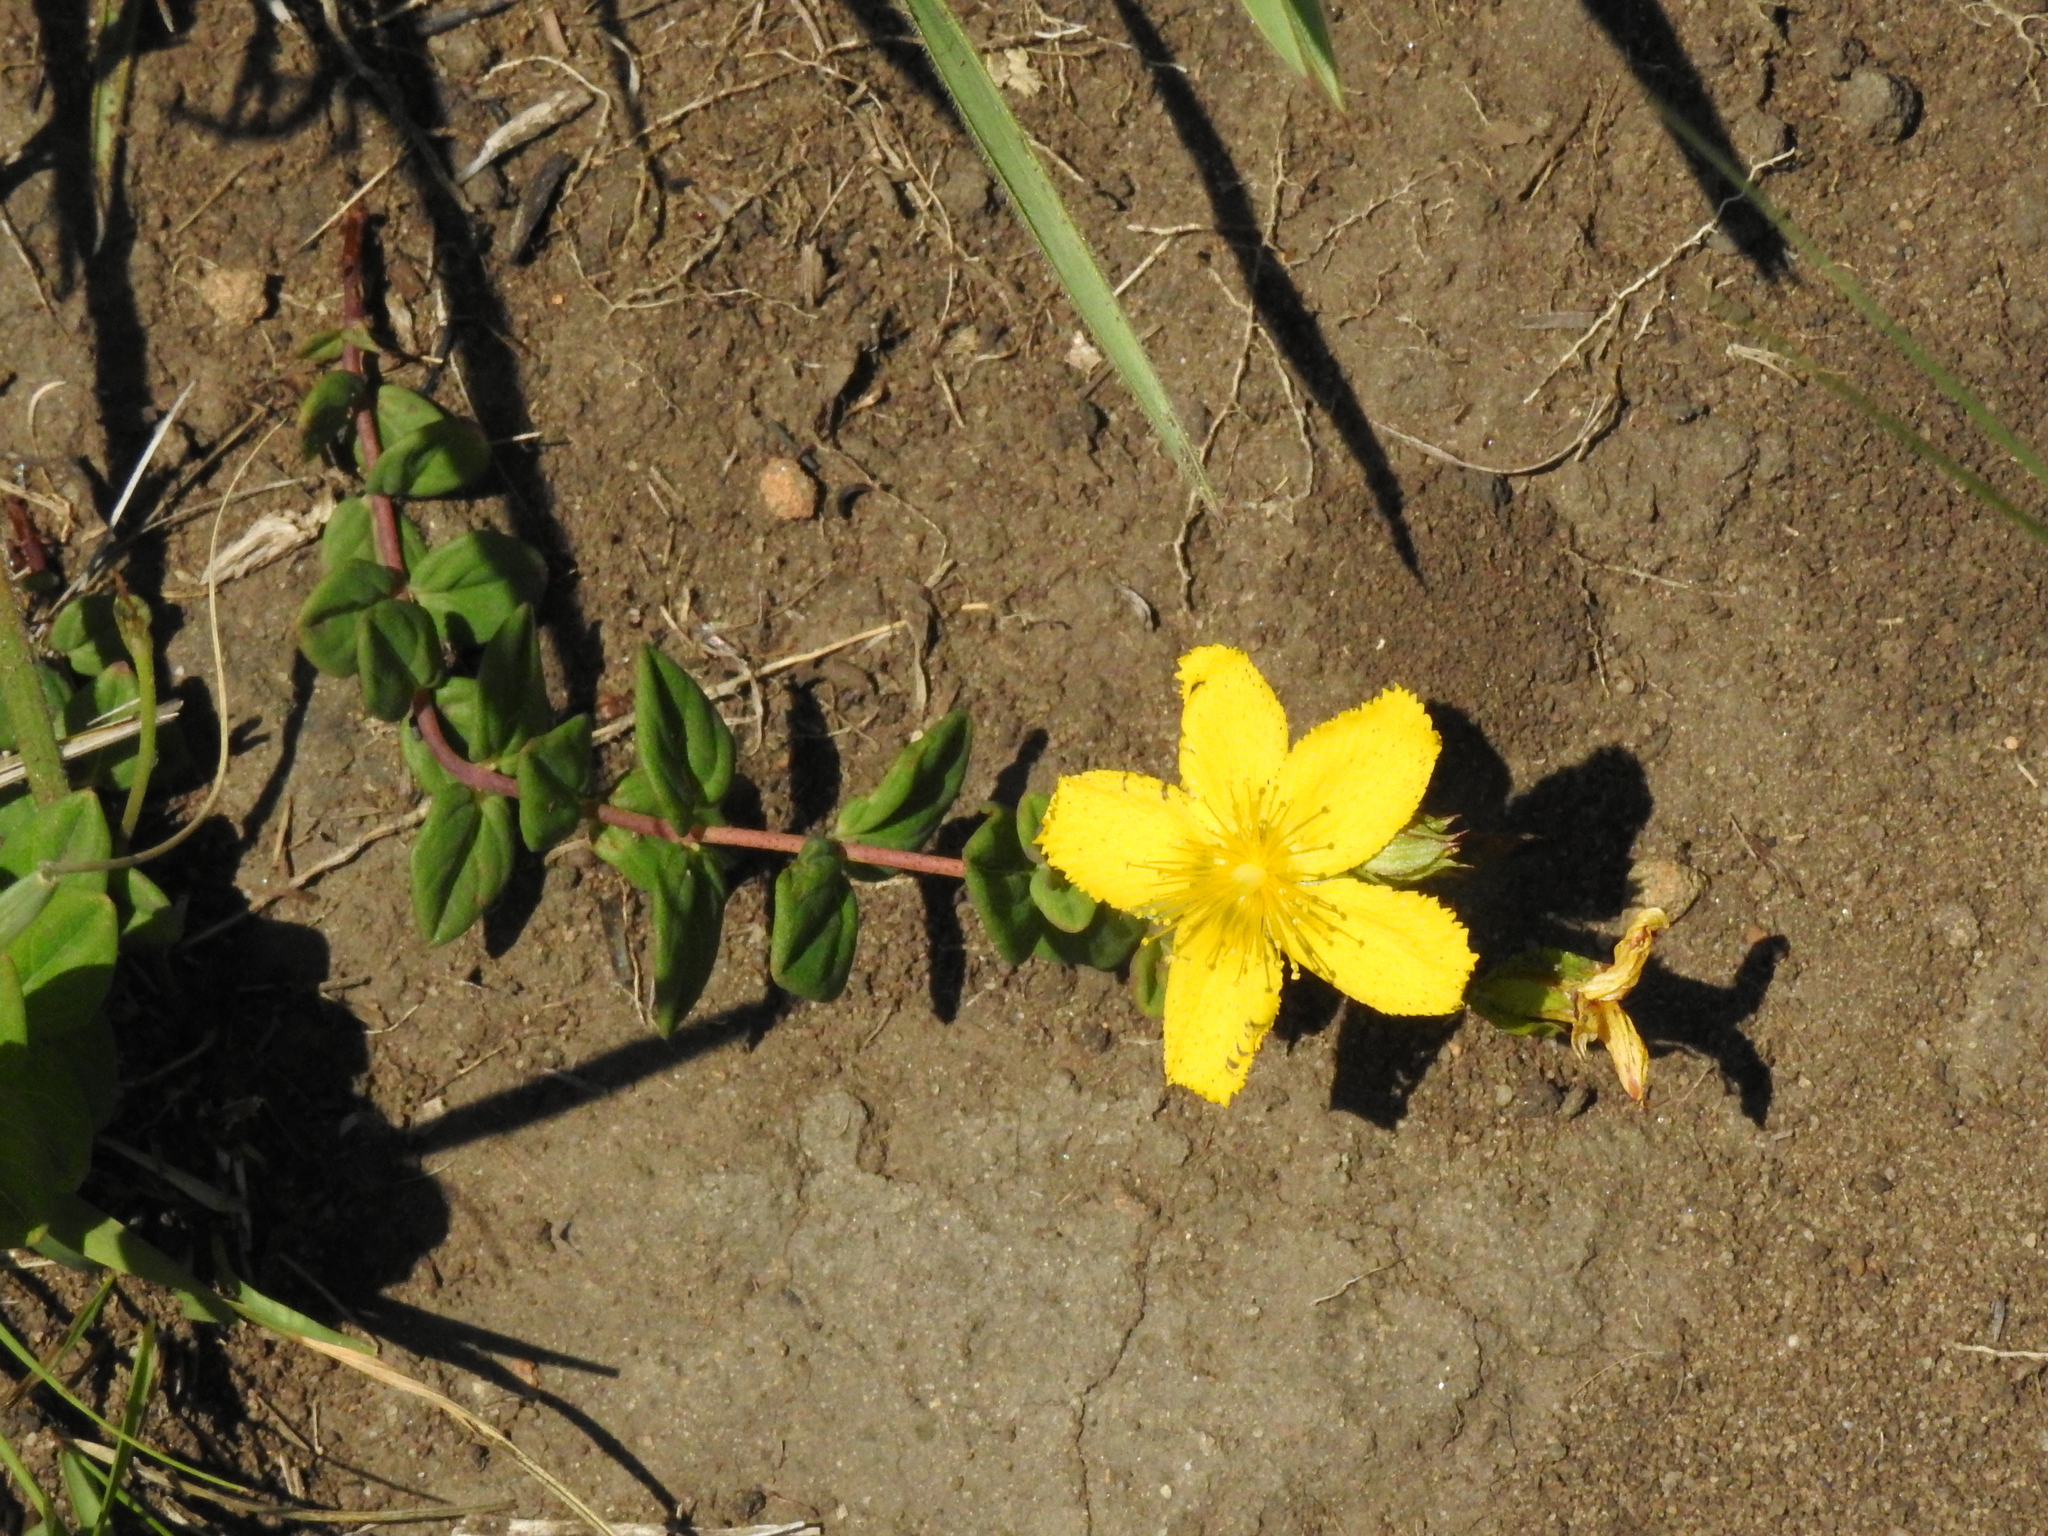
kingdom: Plantae
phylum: Tracheophyta
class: Magnoliopsida
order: Malpighiales
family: Hypericaceae
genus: Hypericum
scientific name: Hypericum aethiopicum
